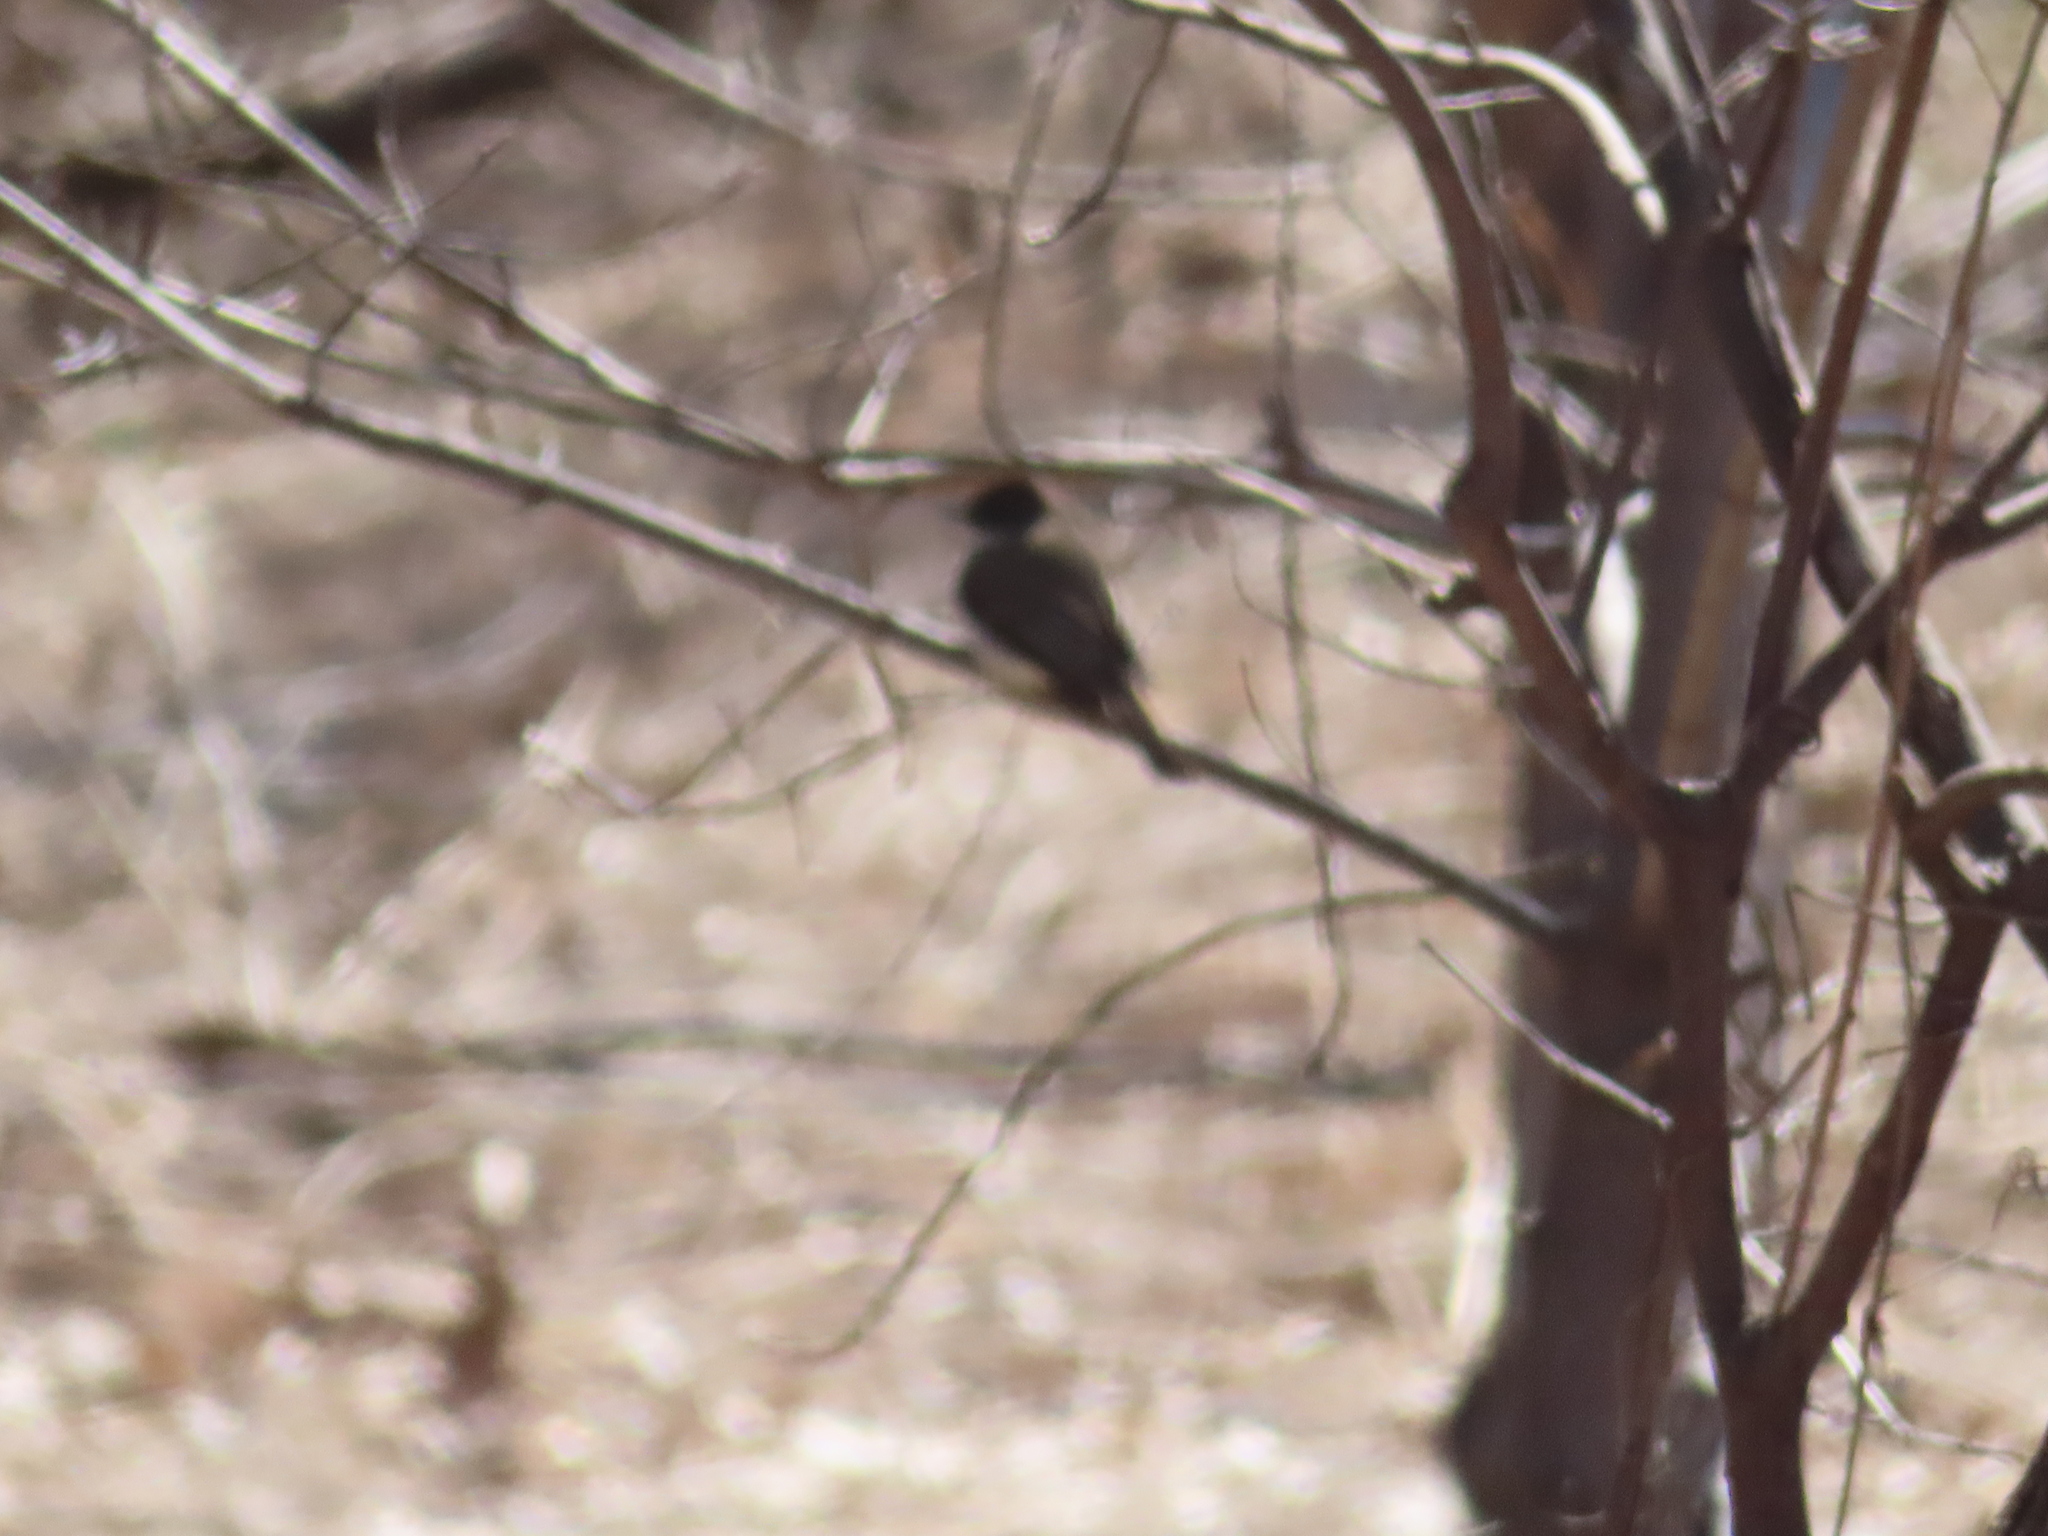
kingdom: Animalia
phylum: Chordata
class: Aves
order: Passeriformes
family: Tyrannidae
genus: Sayornis
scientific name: Sayornis phoebe
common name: Eastern phoebe
